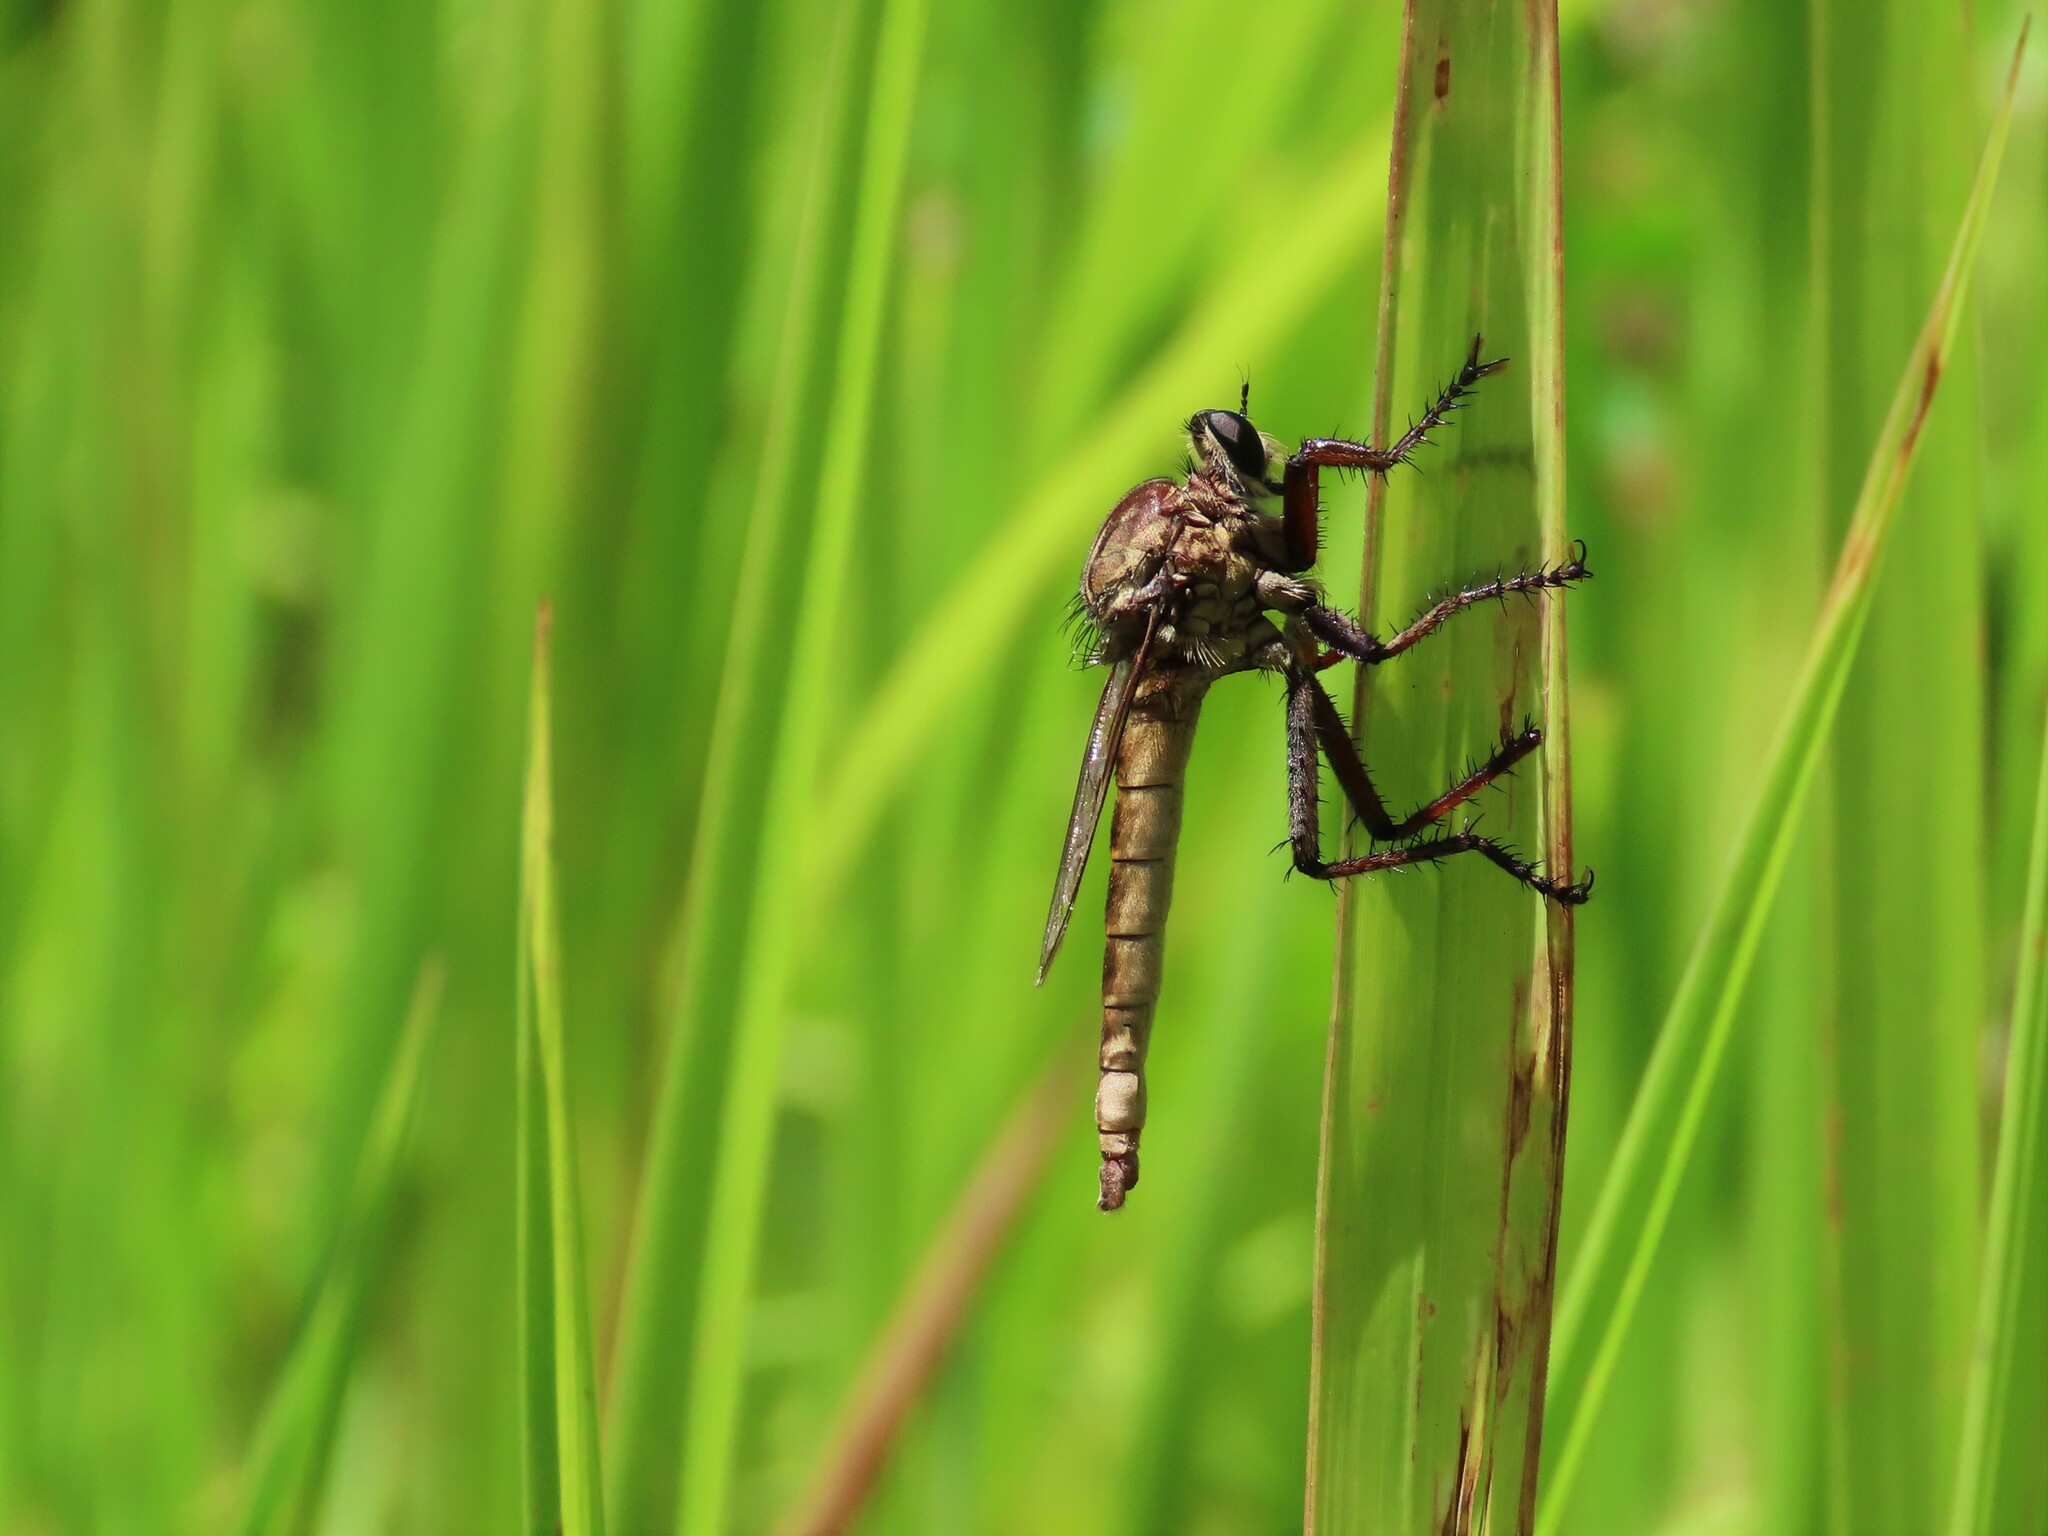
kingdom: Animalia
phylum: Arthropoda
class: Insecta
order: Diptera
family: Asilidae
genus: Proctacanthus
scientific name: Proctacanthus gracilis
